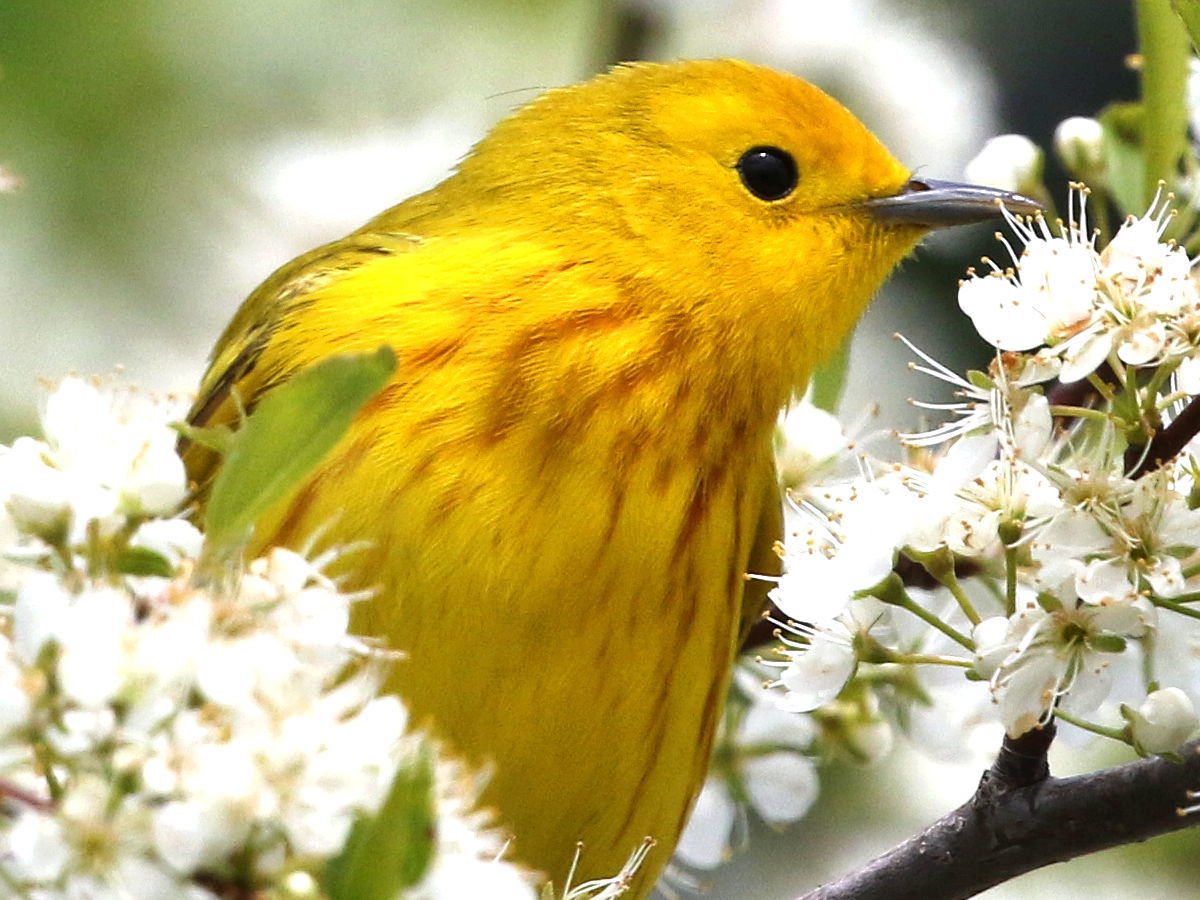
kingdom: Animalia
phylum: Chordata
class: Aves
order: Passeriformes
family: Parulidae
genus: Setophaga
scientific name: Setophaga petechia
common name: Yellow warbler
